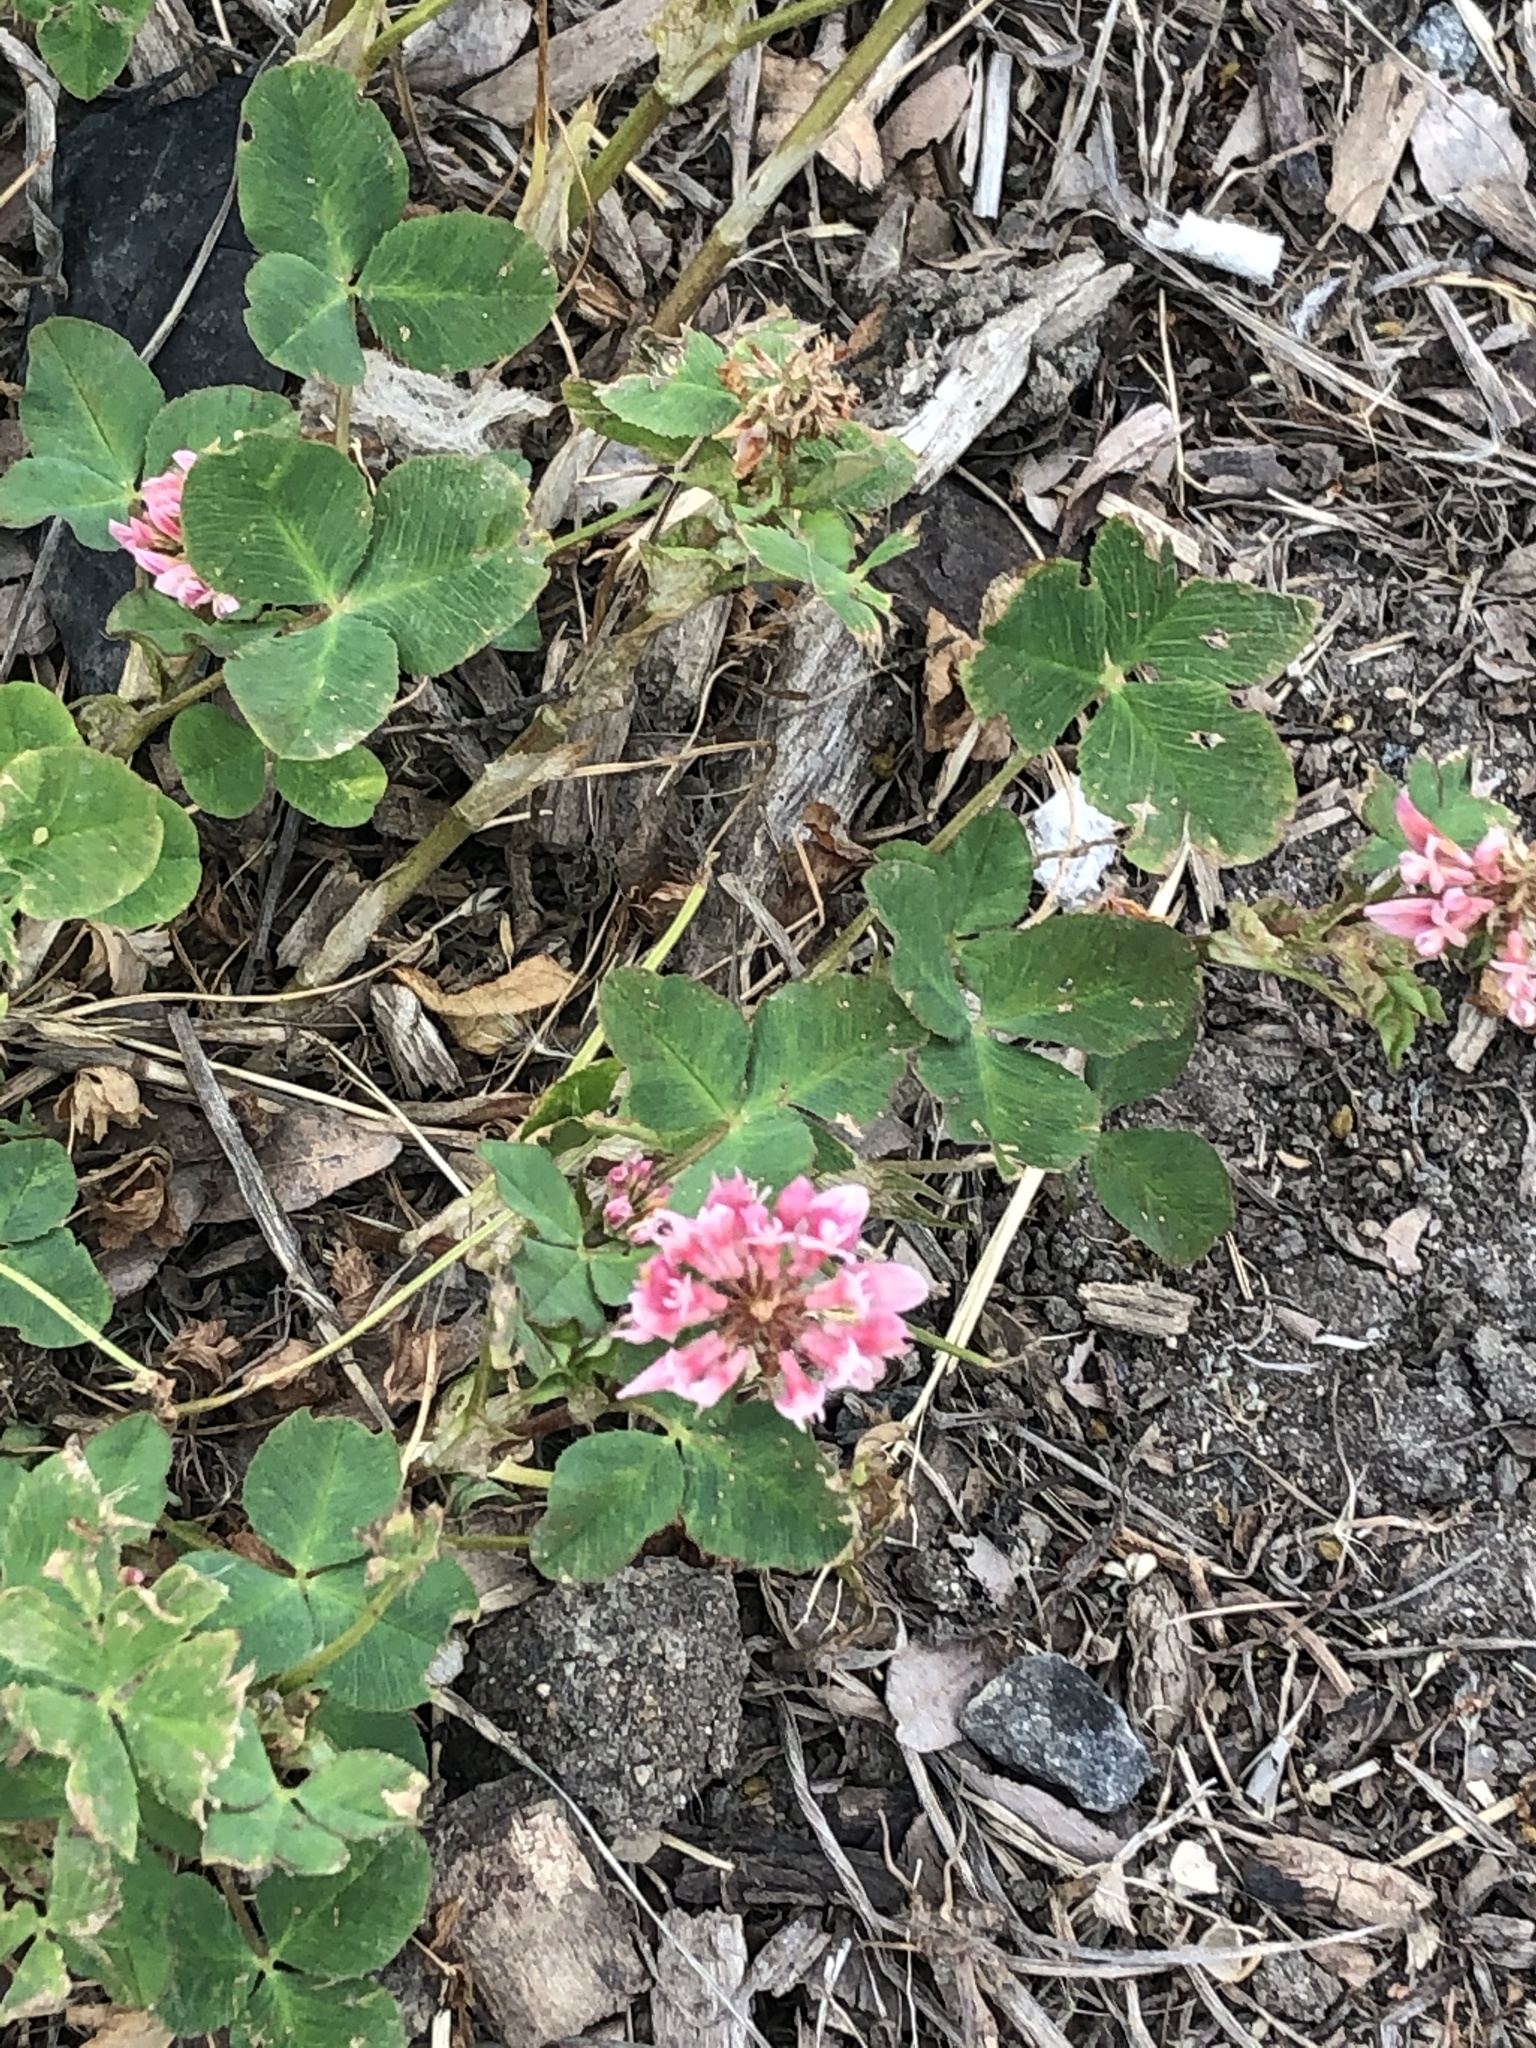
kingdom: Plantae
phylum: Tracheophyta
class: Magnoliopsida
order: Fabales
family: Fabaceae
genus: Trifolium
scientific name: Trifolium hybridum
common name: Alsike clover
